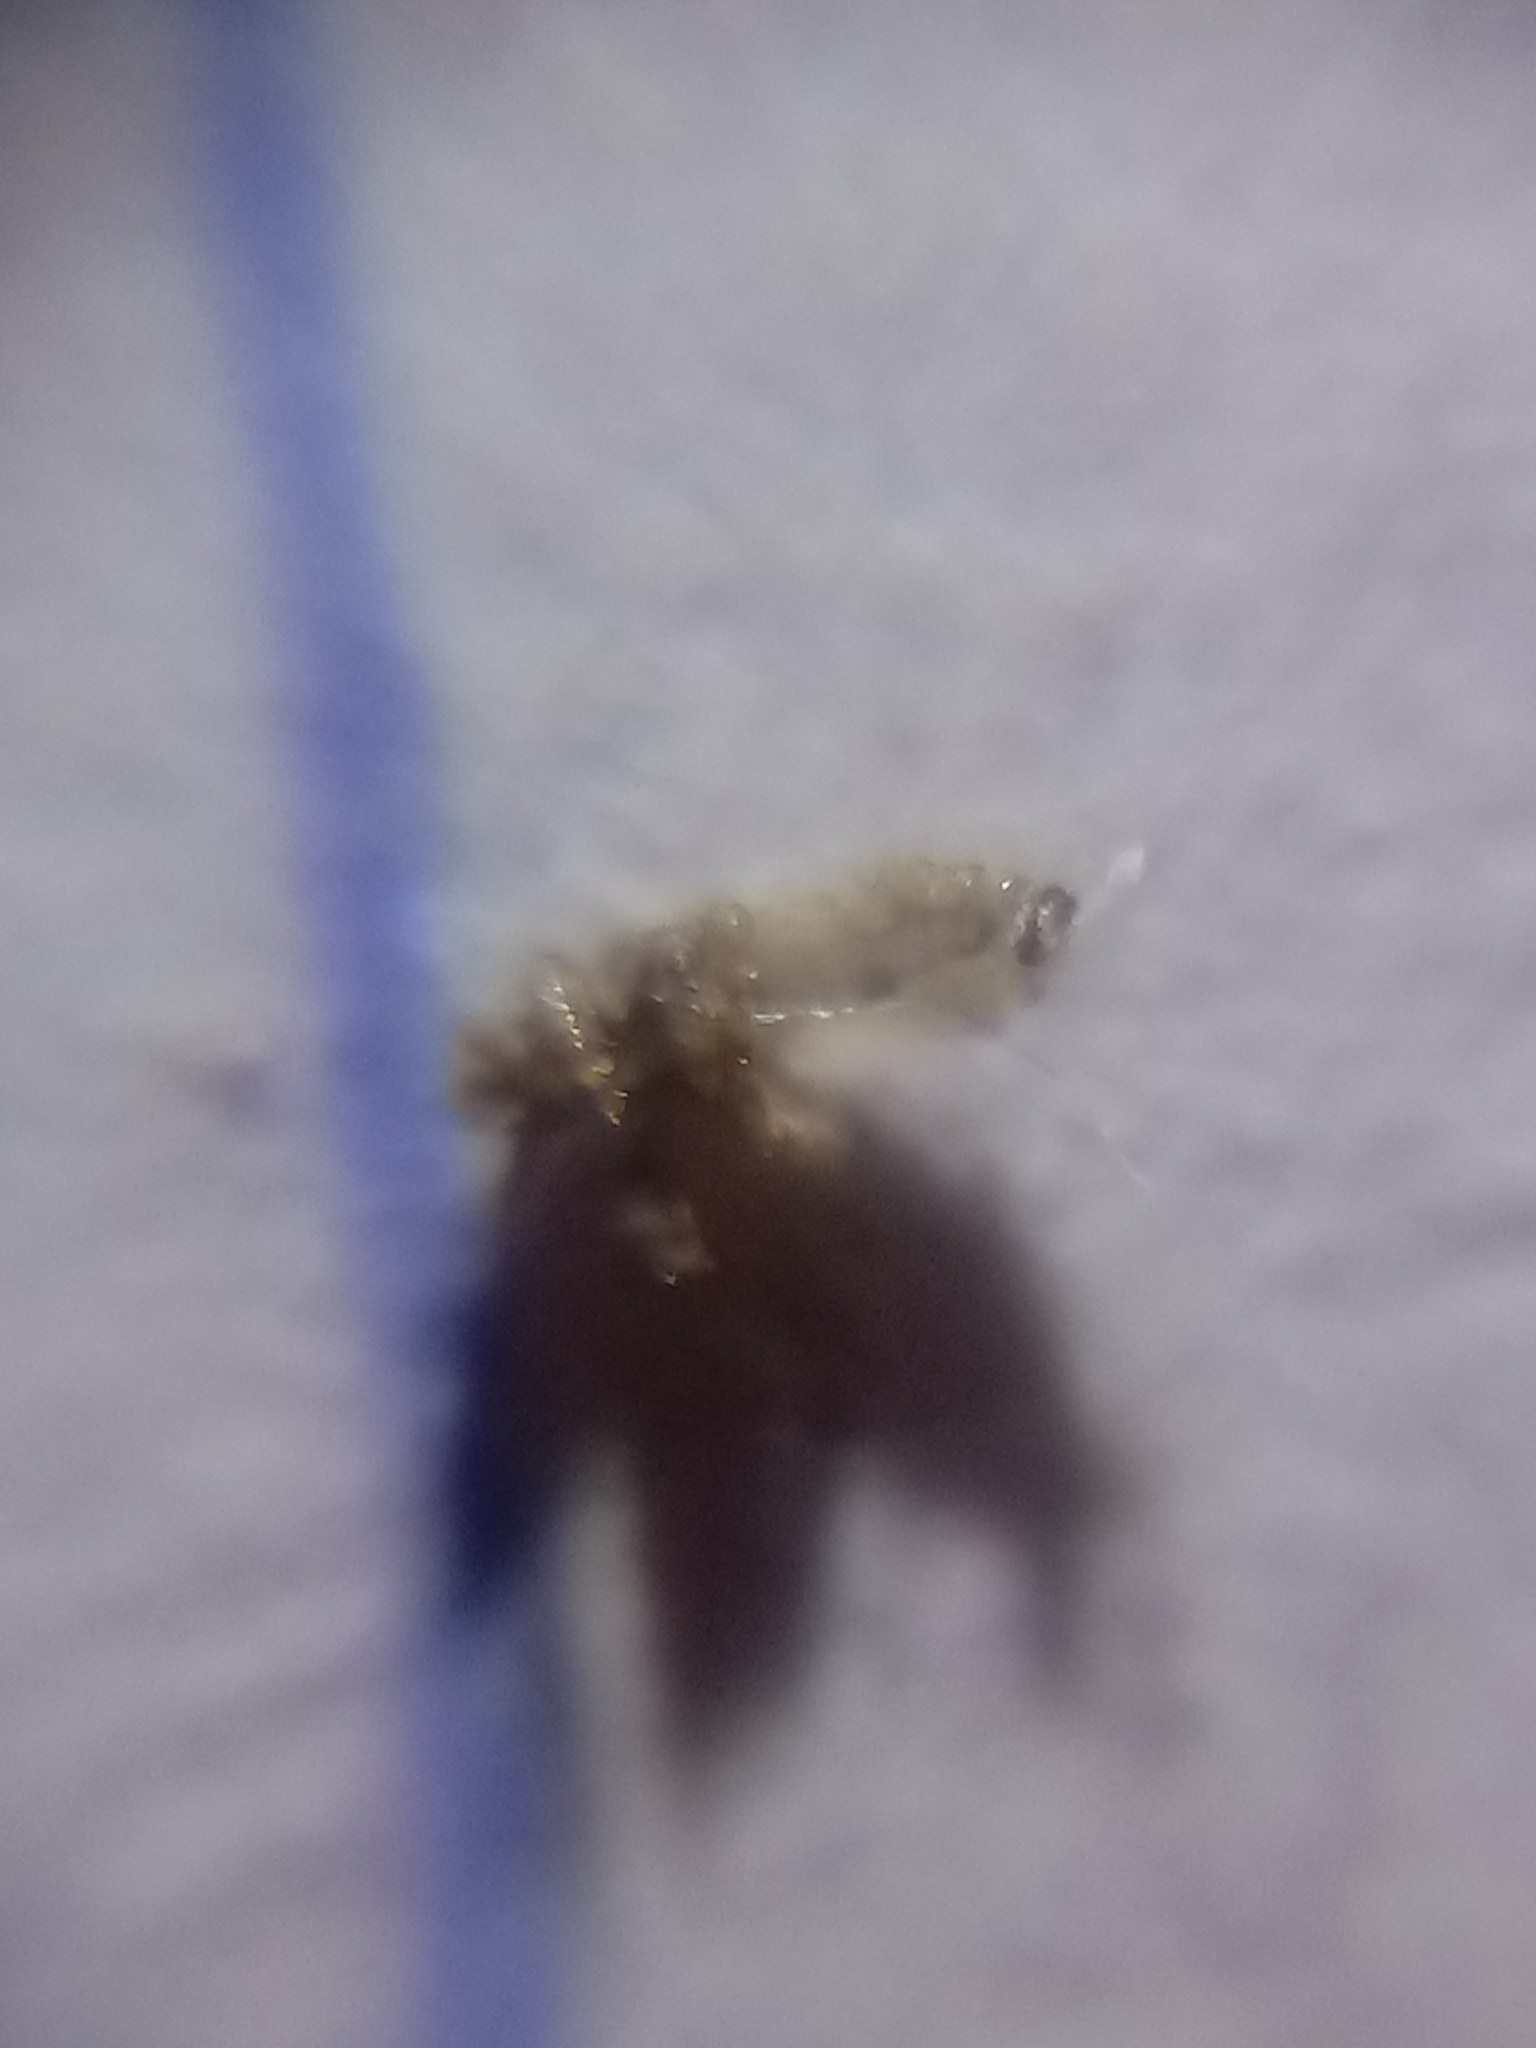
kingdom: Animalia
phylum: Arthropoda
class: Insecta
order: Psocodea
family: Pediculidae
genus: Pediculus
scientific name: Pediculus humanus
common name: Body louse
